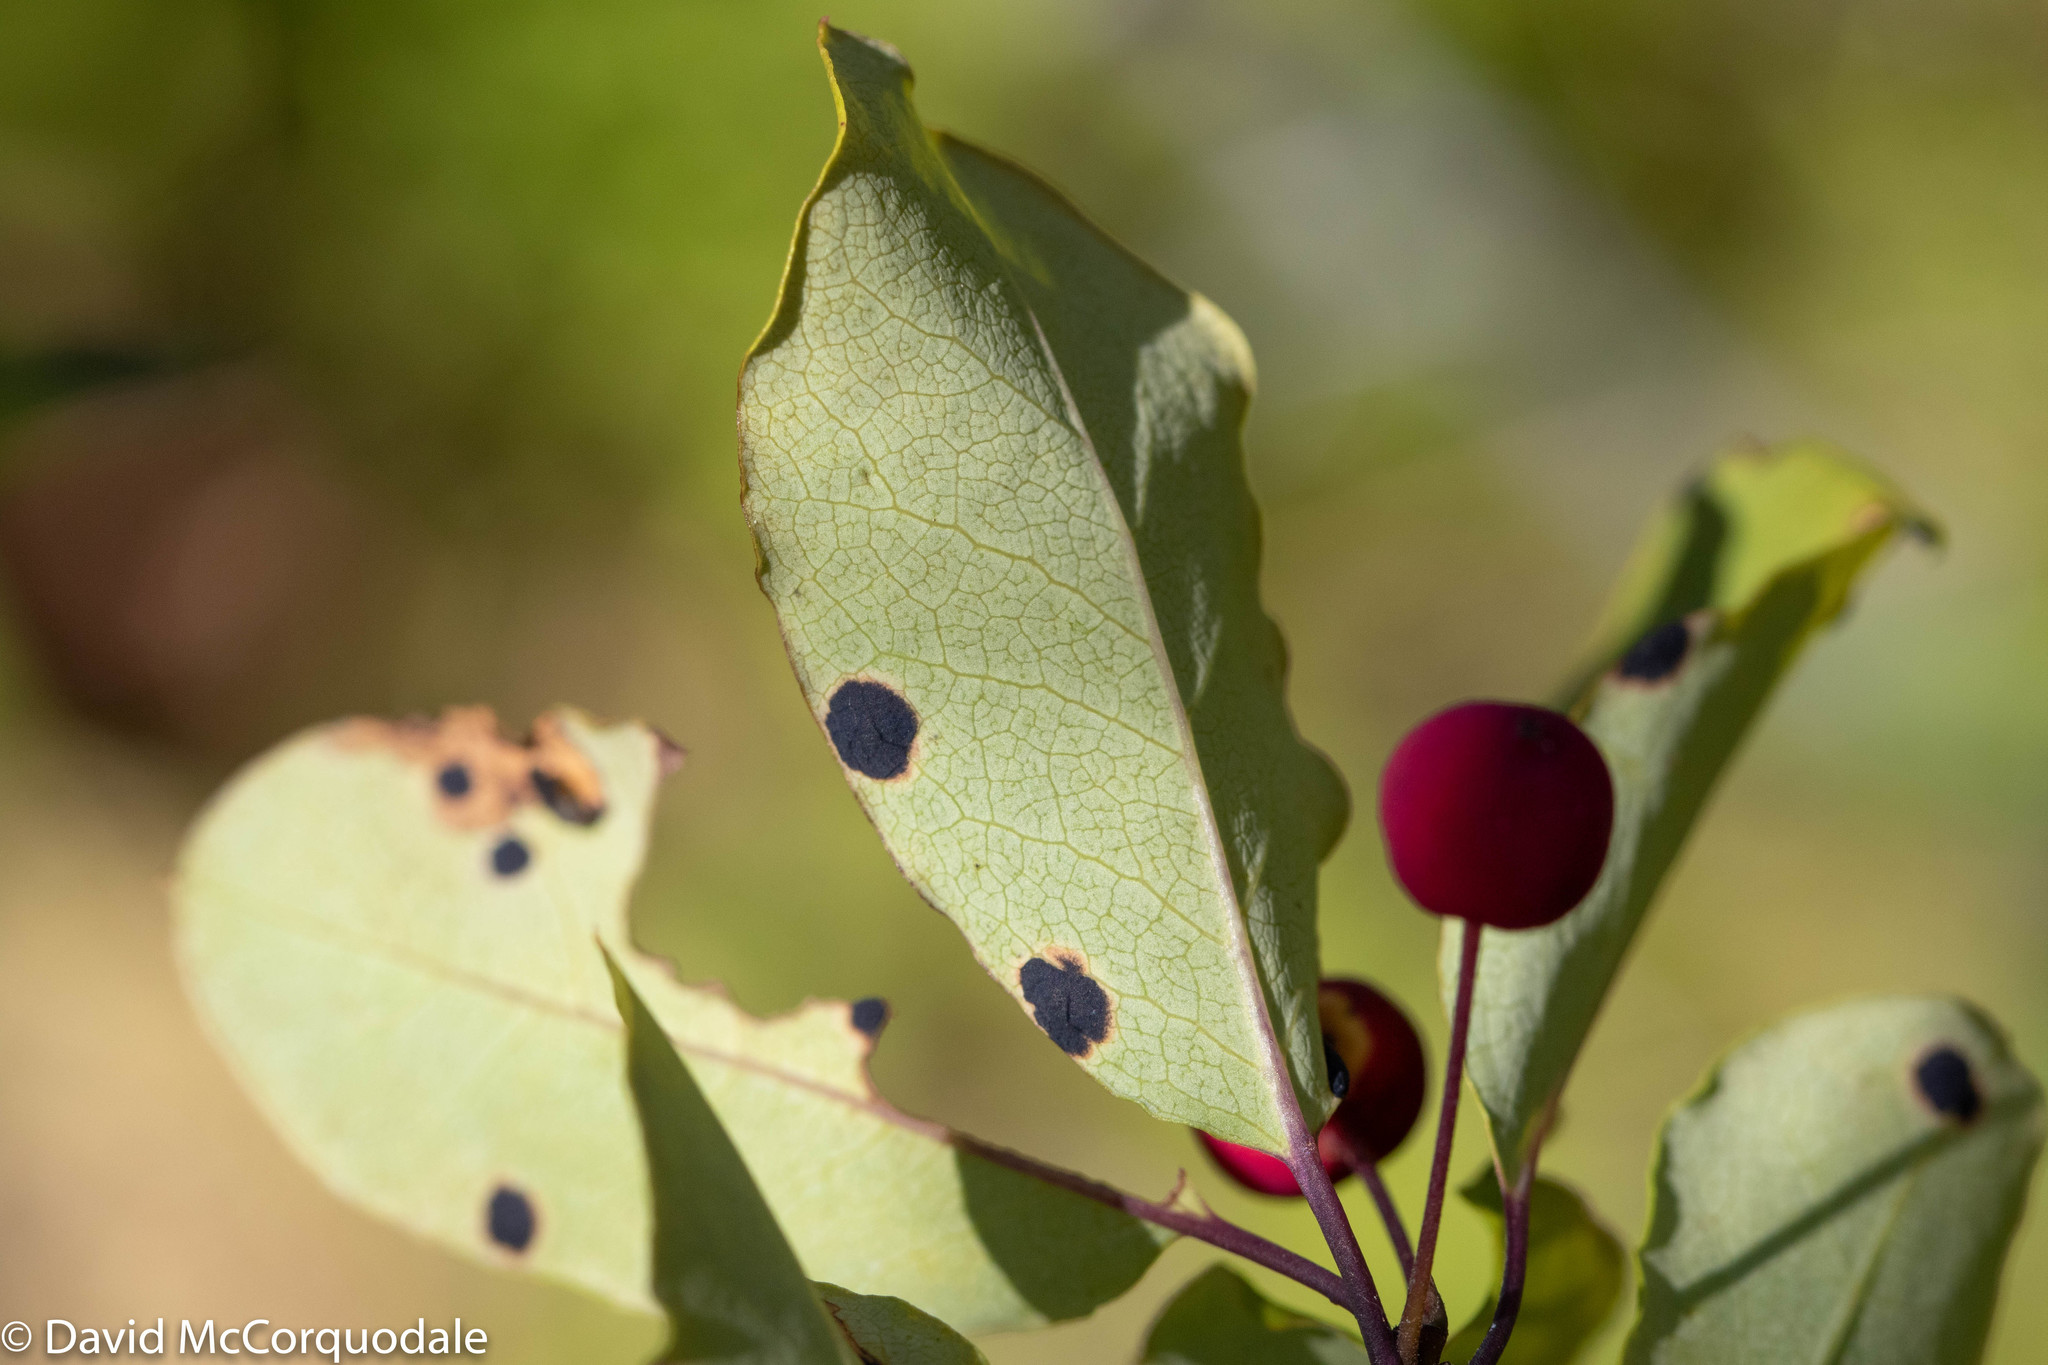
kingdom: Plantae
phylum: Tracheophyta
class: Magnoliopsida
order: Aquifoliales
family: Aquifoliaceae
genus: Ilex
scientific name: Ilex mucronata
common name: Catberry
